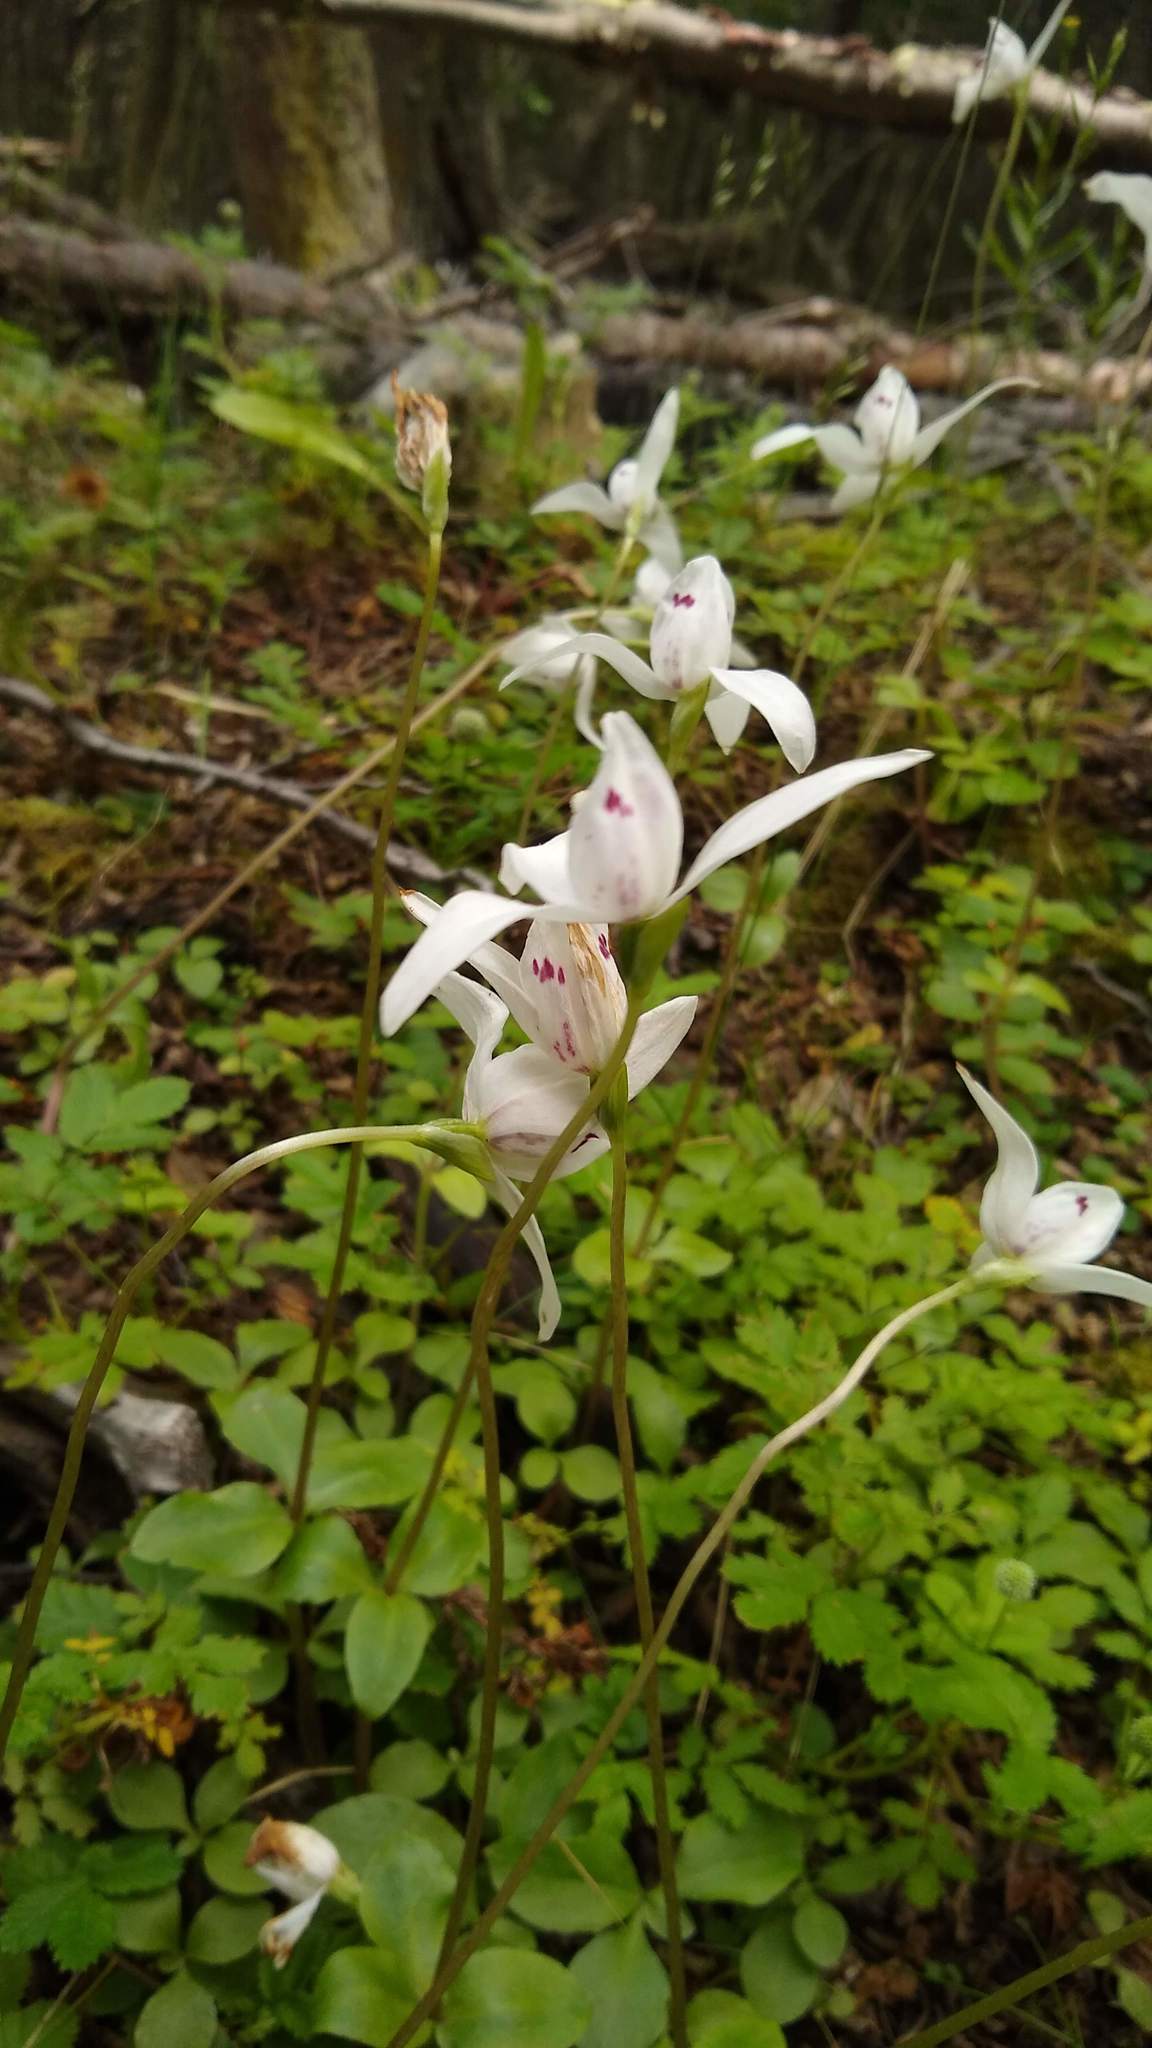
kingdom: Plantae
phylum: Tracheophyta
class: Liliopsida
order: Asparagales
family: Orchidaceae
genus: Codonorchis
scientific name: Codonorchis lessonii
